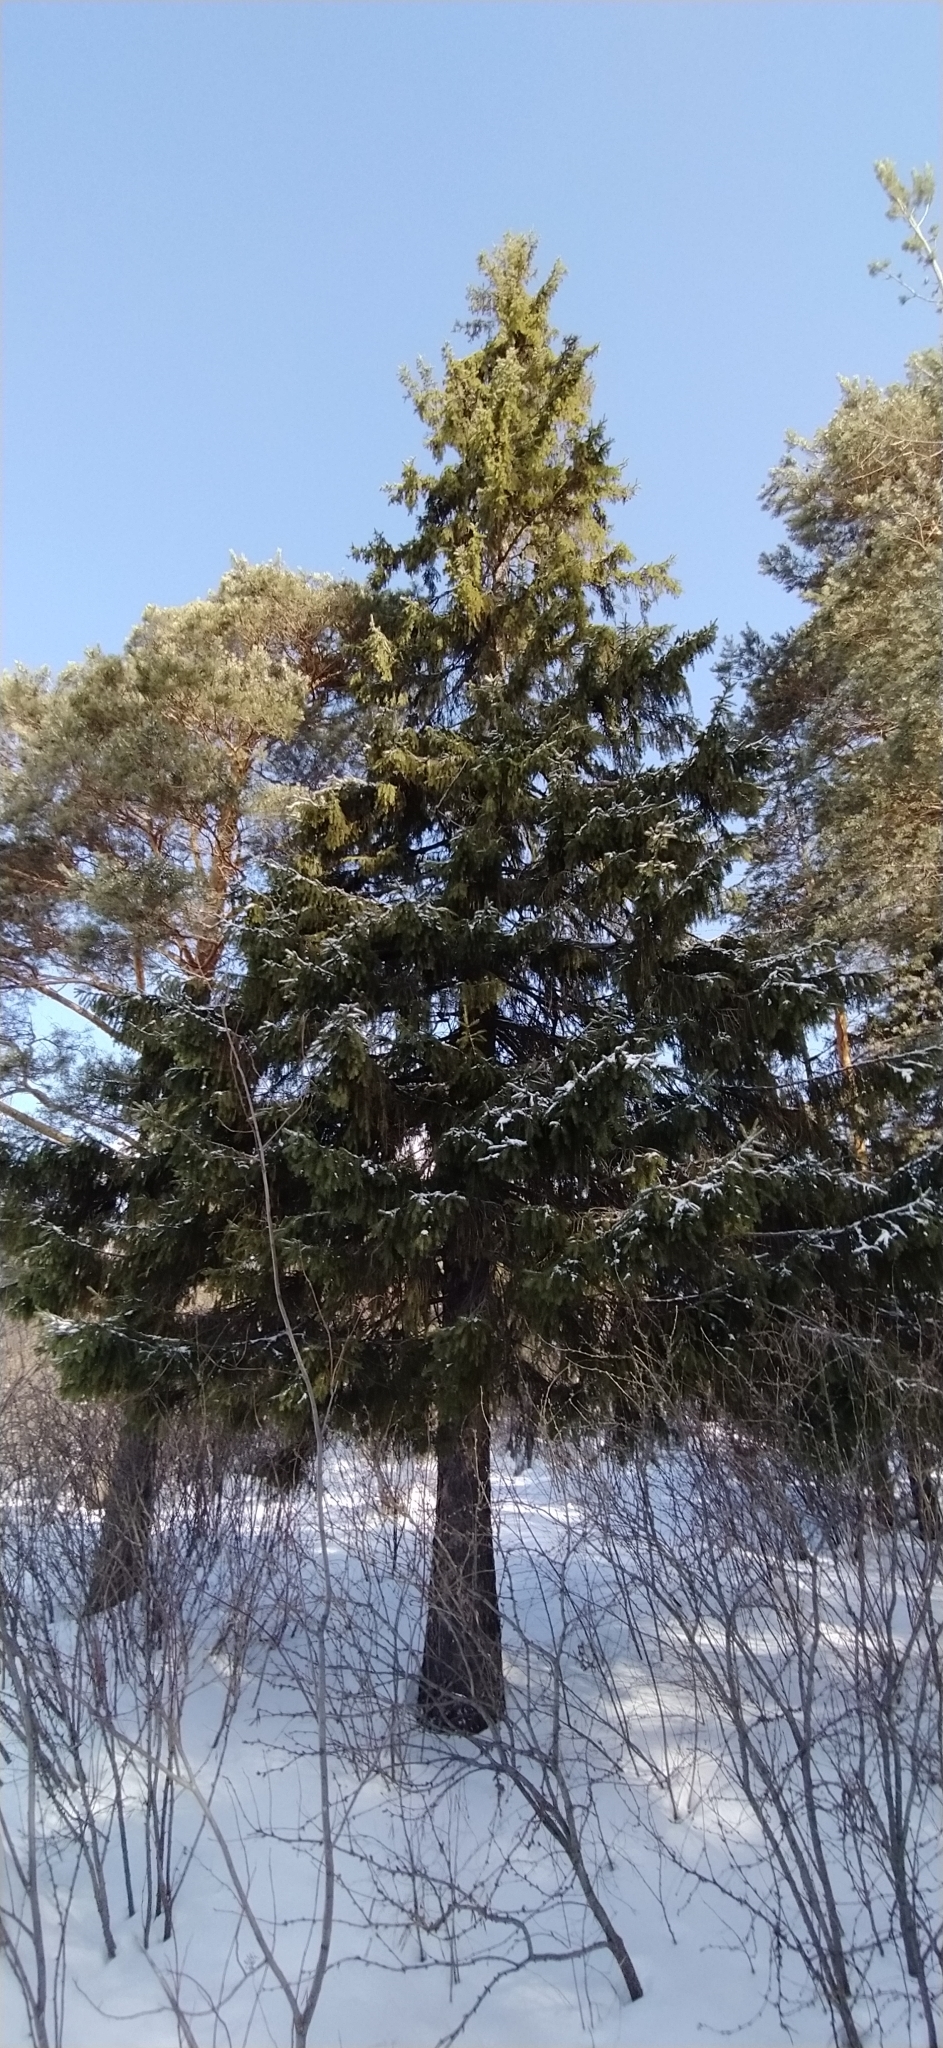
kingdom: Plantae
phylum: Tracheophyta
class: Pinopsida
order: Pinales
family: Pinaceae
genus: Picea
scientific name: Picea obovata
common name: Siberian spruce
